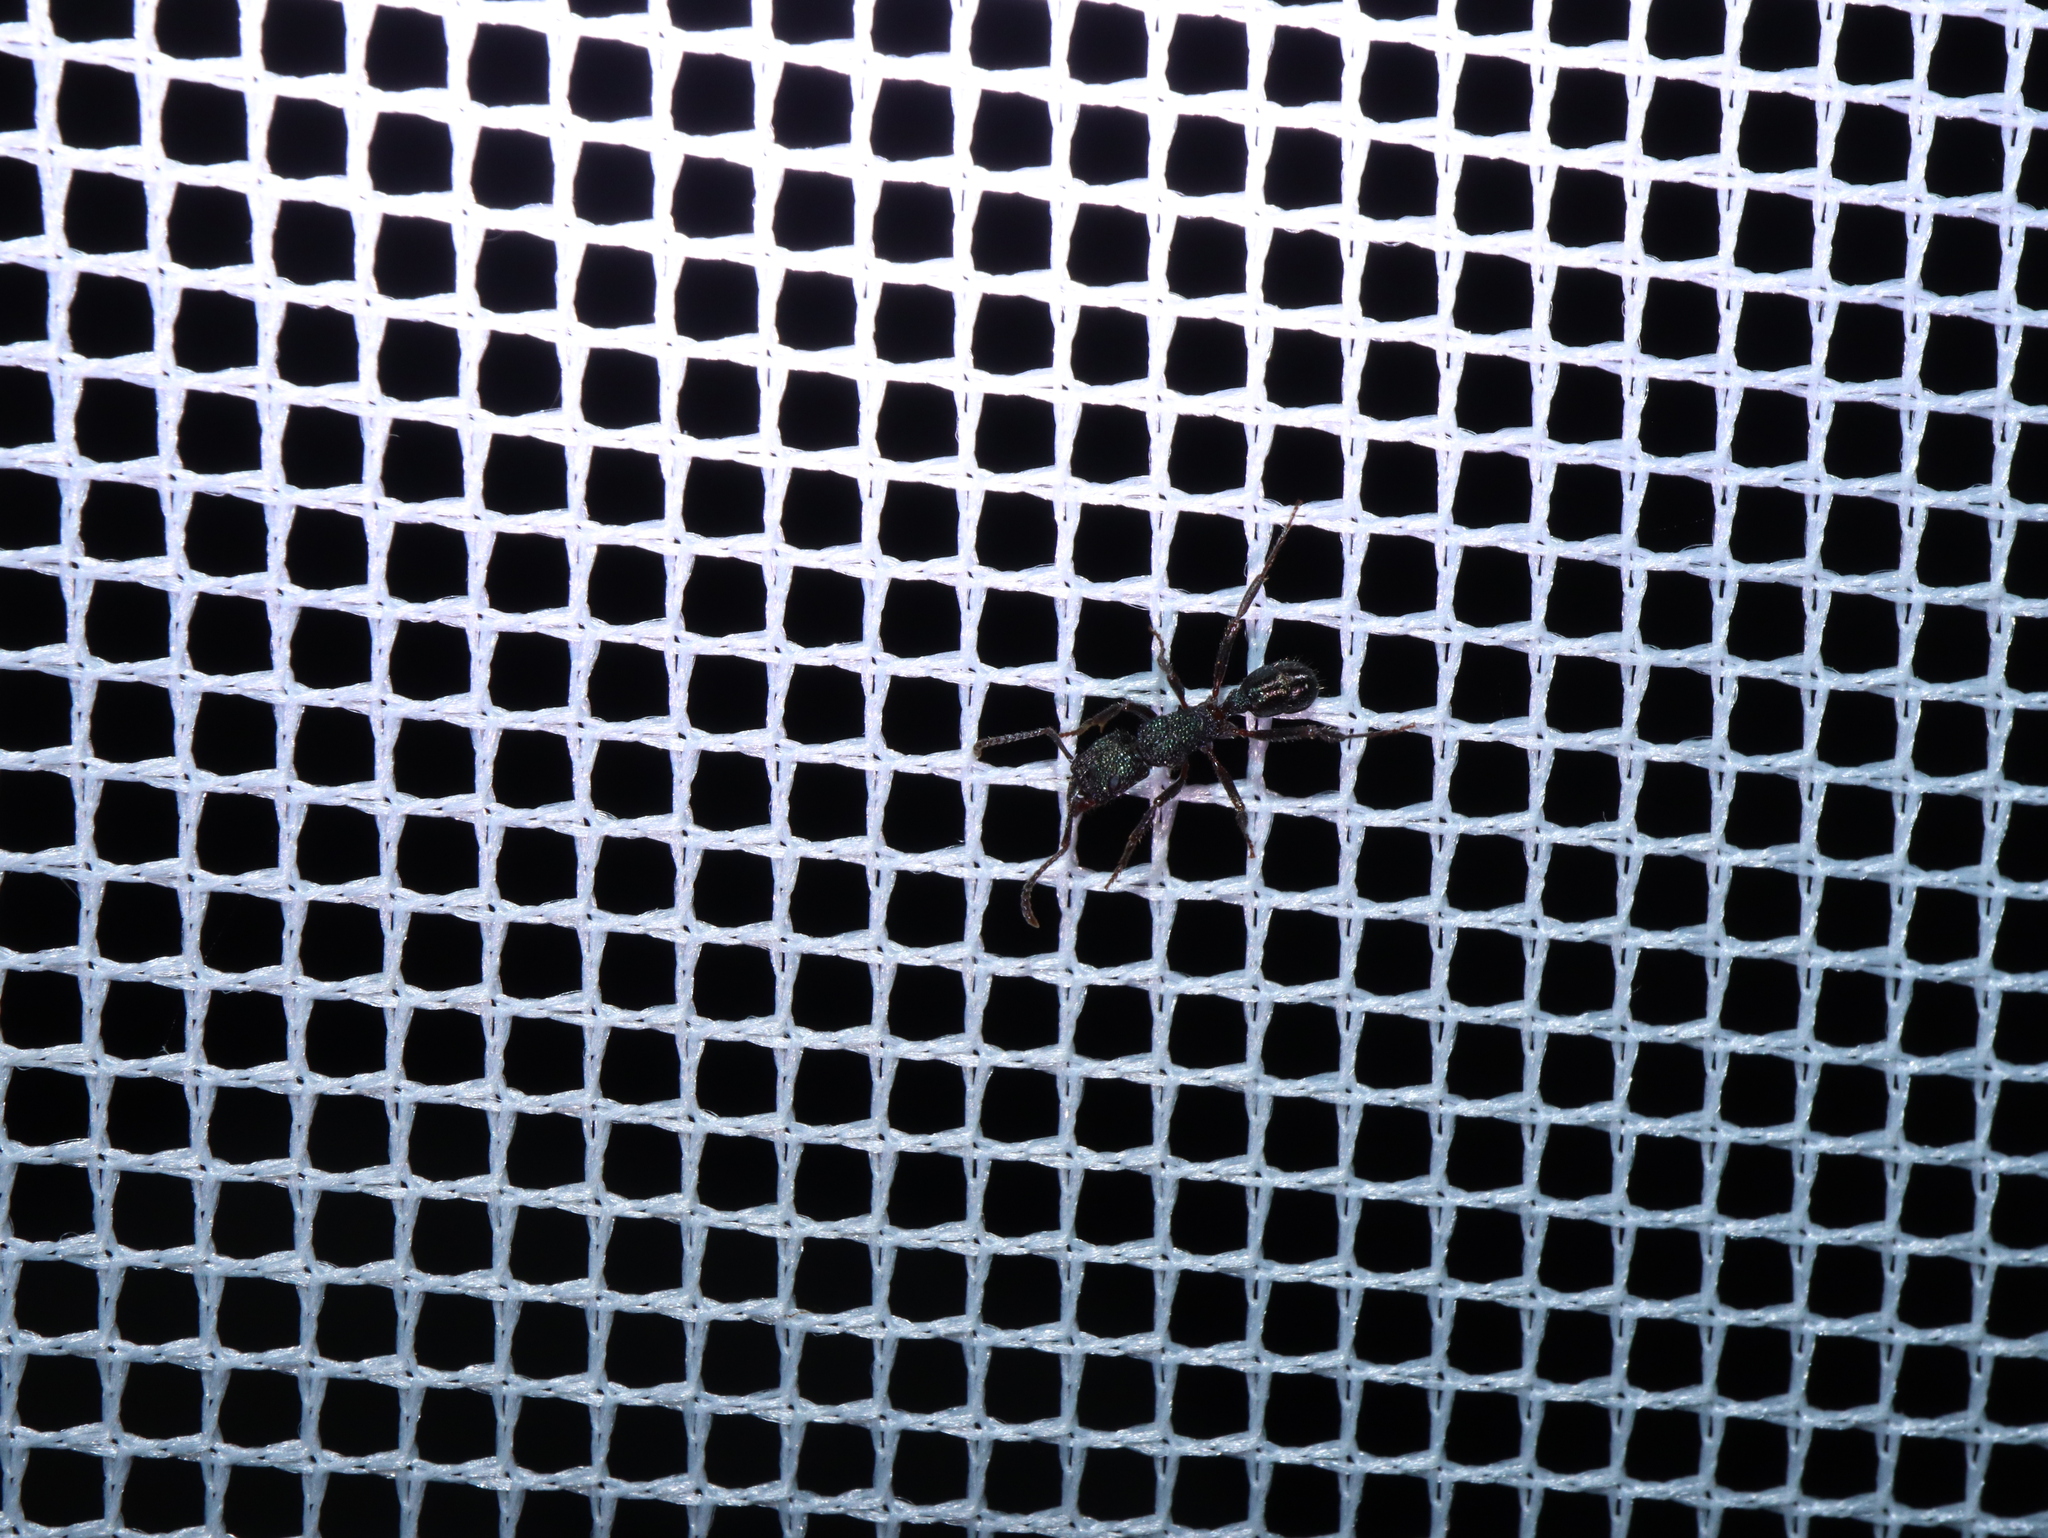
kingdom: Animalia
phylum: Arthropoda
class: Insecta
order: Hymenoptera
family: Formicidae
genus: Rhytidoponera
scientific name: Rhytidoponera metallica
